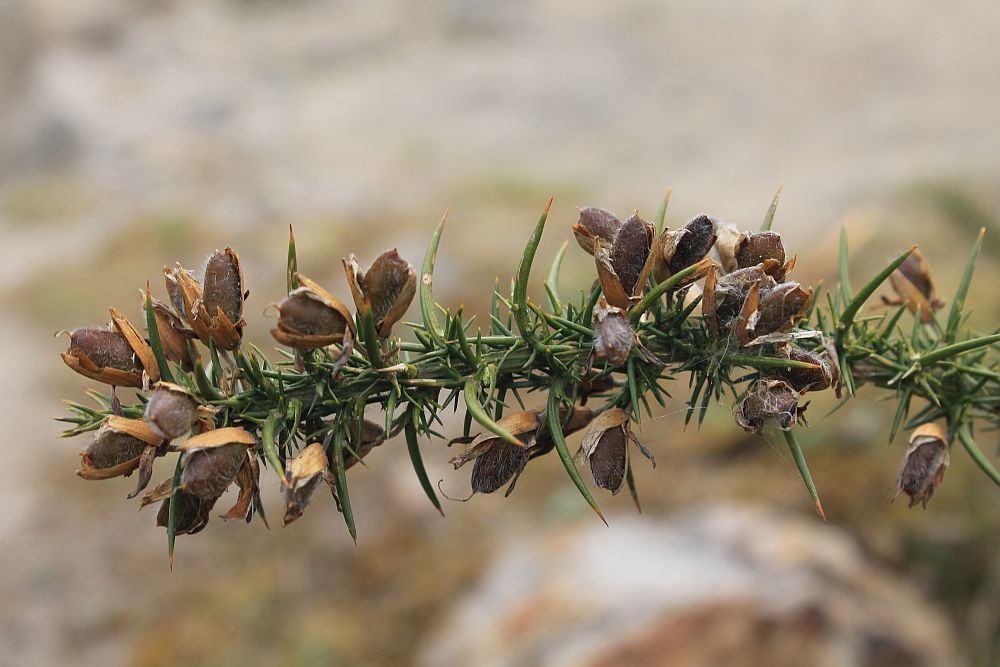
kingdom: Plantae
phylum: Tracheophyta
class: Magnoliopsida
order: Fabales
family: Fabaceae
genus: Ulex
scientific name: Ulex gallii
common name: Western gorse
